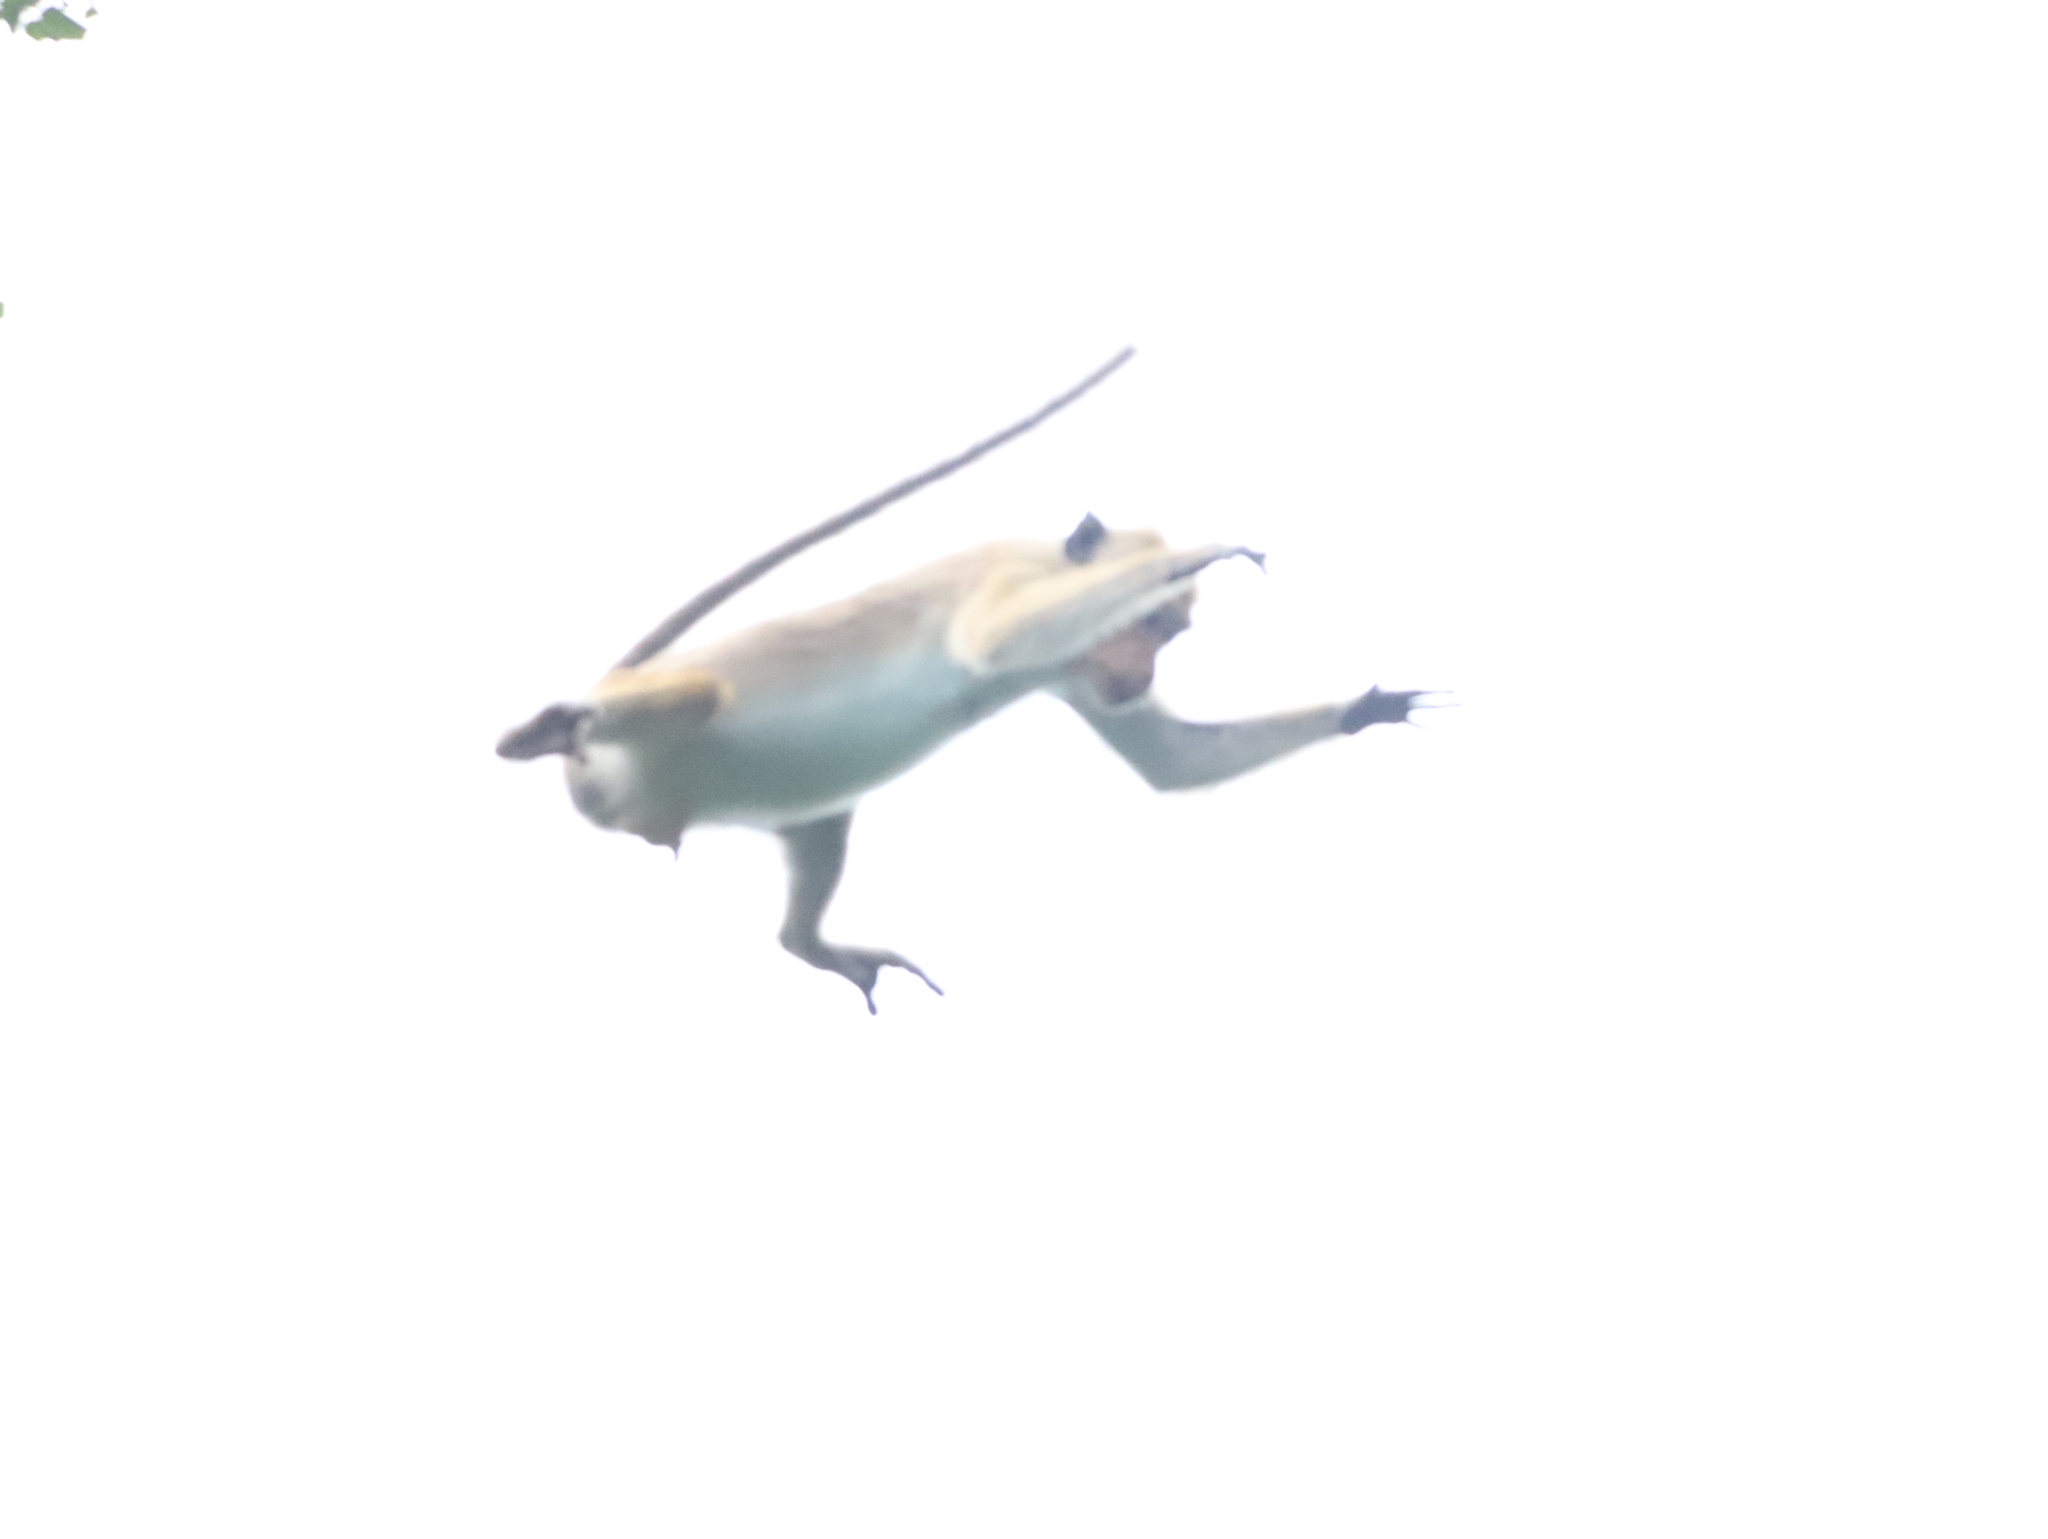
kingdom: Animalia
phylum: Chordata
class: Mammalia
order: Primates
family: Cercopithecidae
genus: Macaca
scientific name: Macaca sinica
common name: Toque macaque
